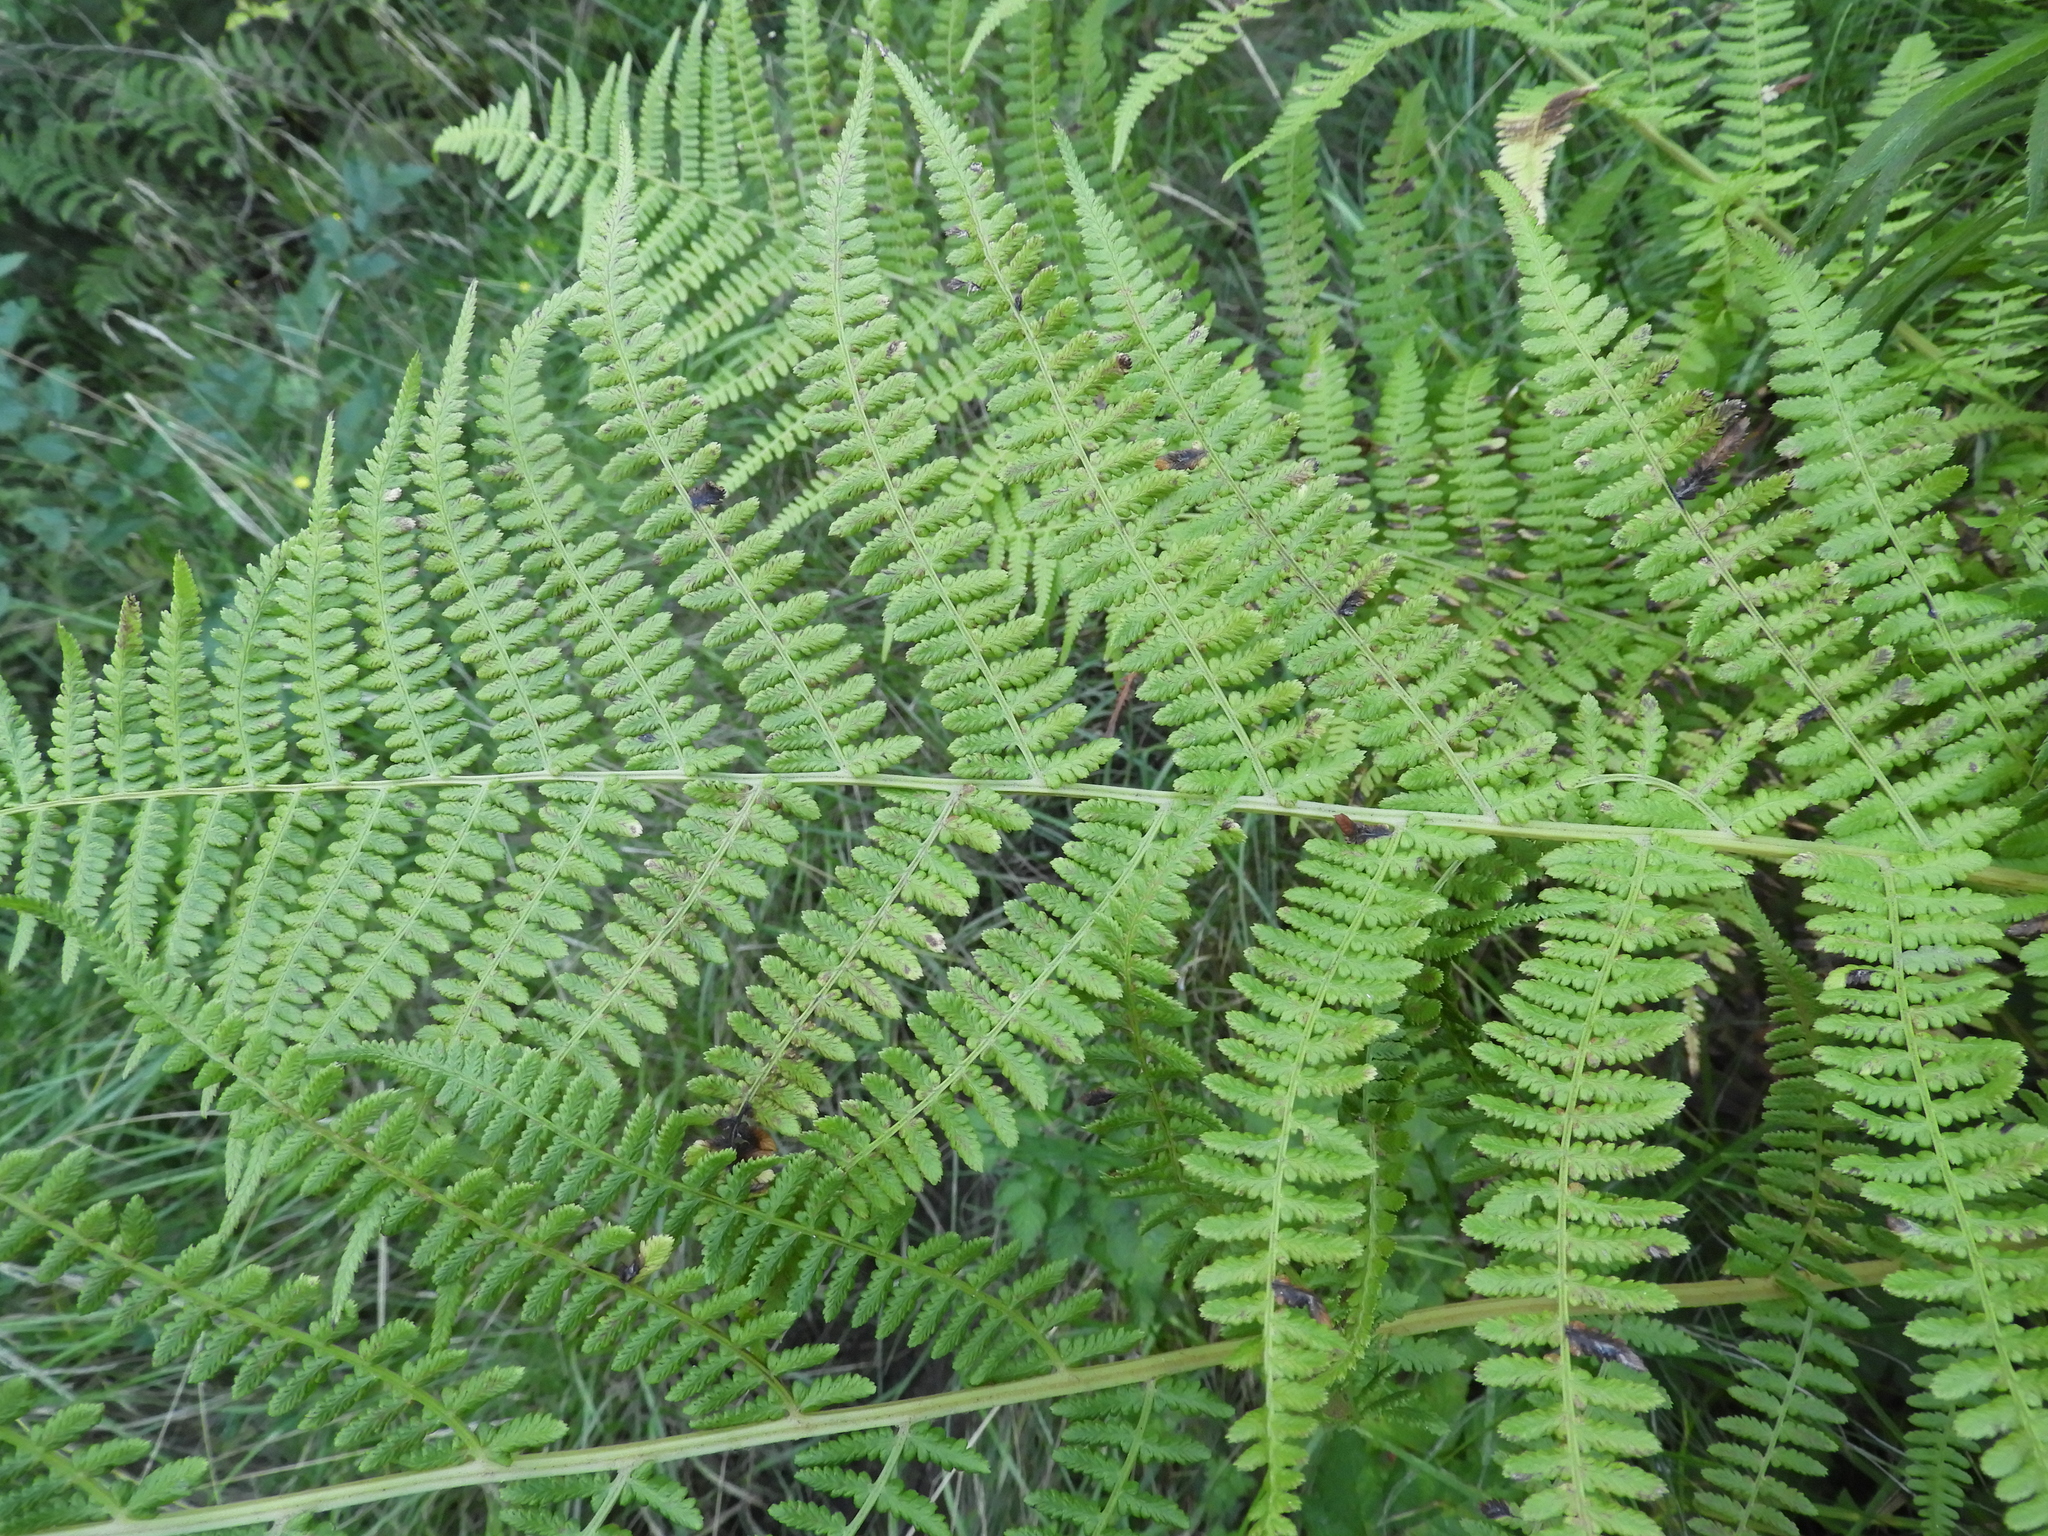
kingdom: Plantae
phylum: Tracheophyta
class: Polypodiopsida
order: Polypodiales
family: Athyriaceae
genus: Athyrium
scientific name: Athyrium cyclosorum
